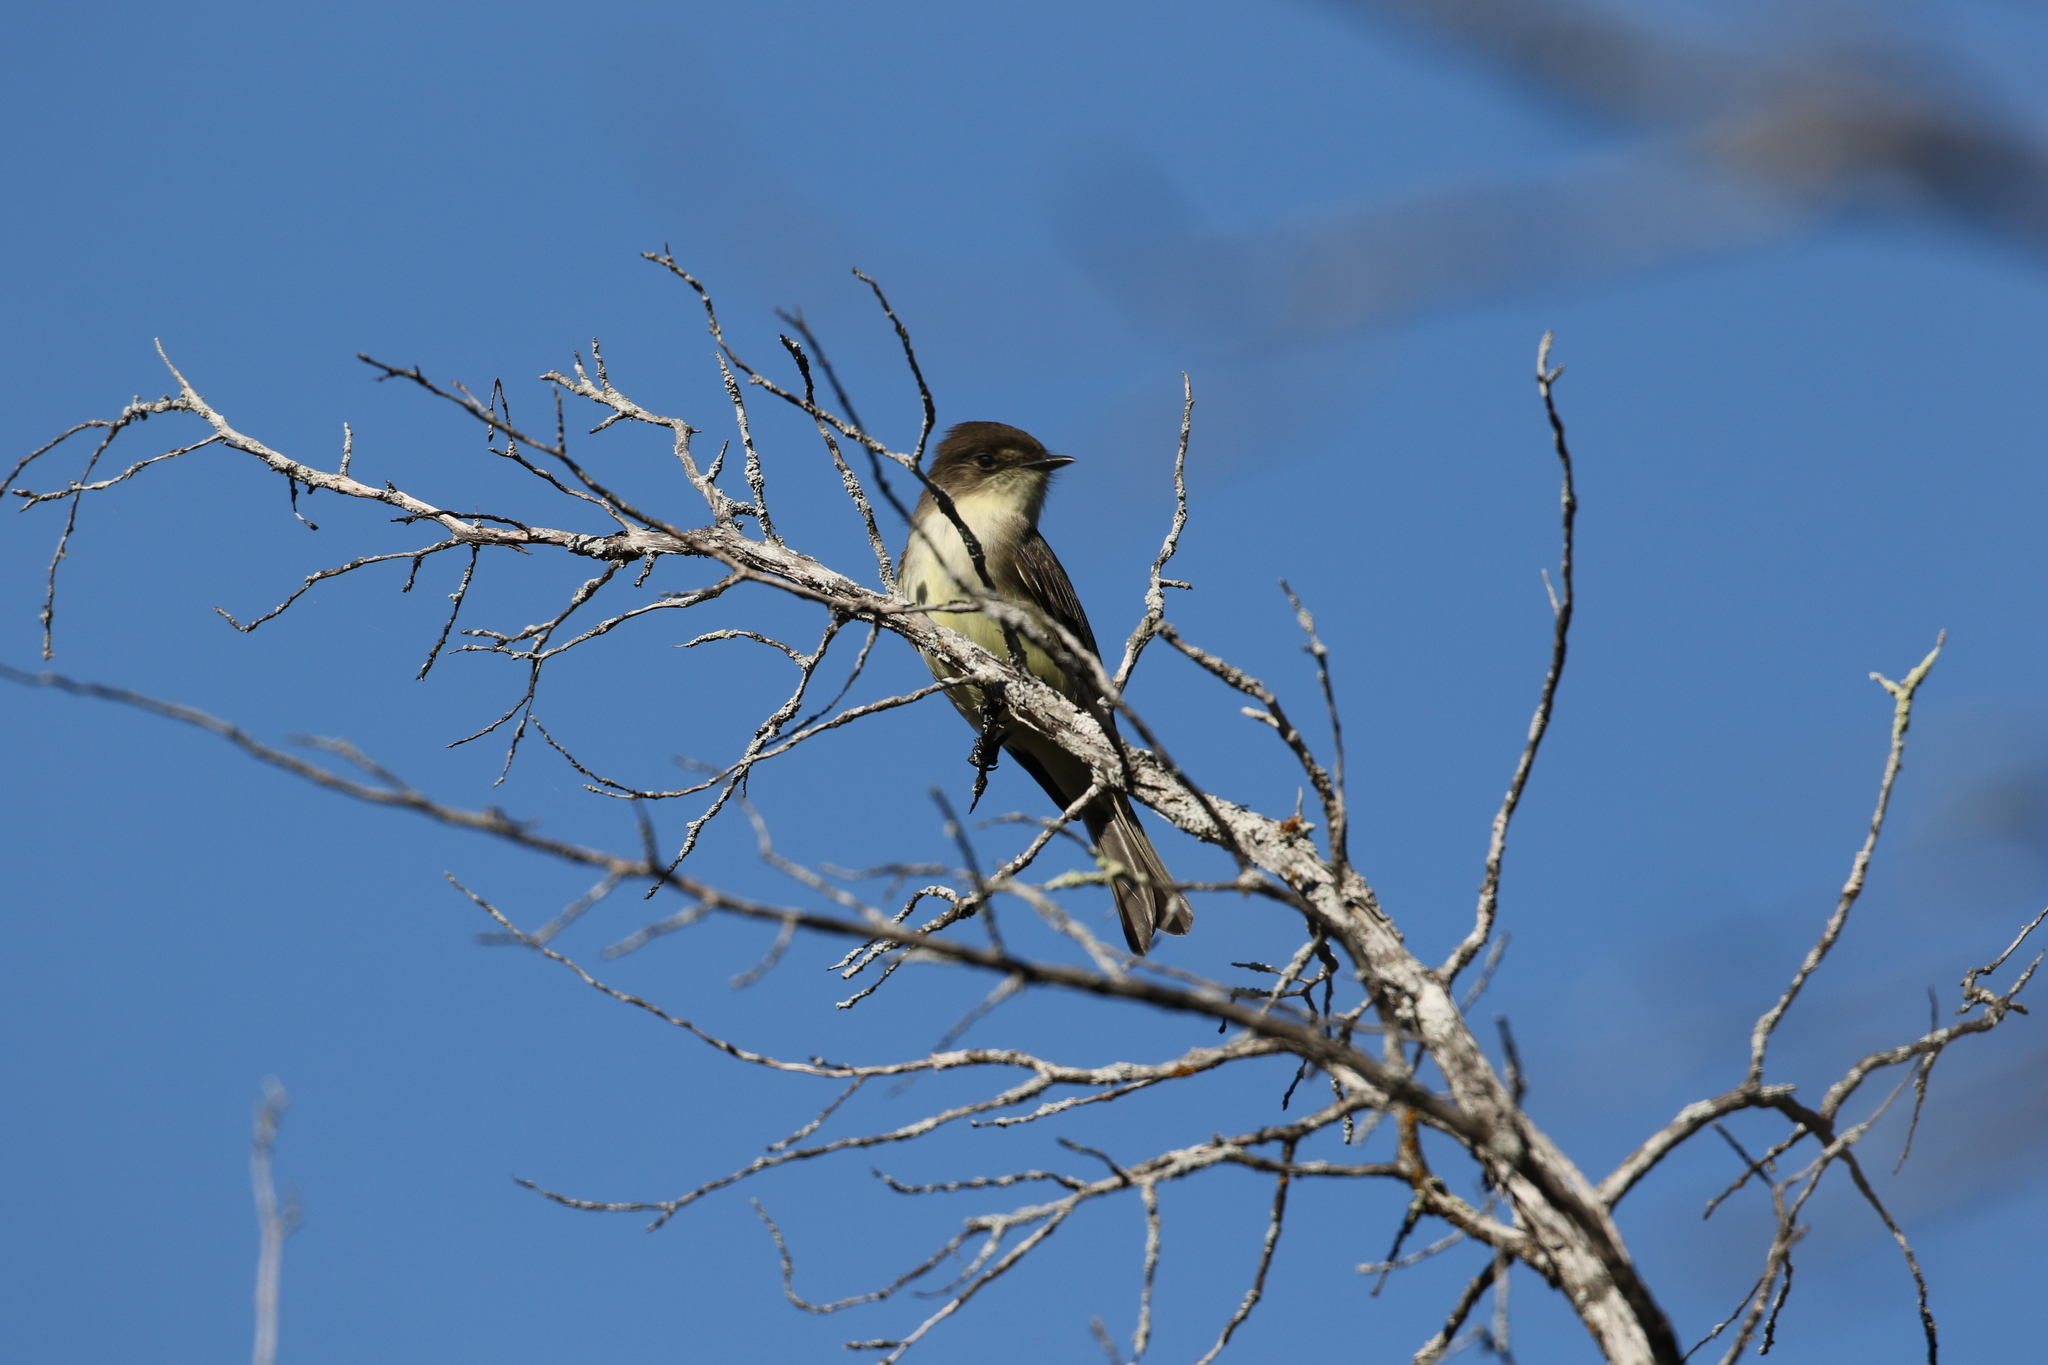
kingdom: Animalia
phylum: Chordata
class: Aves
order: Passeriformes
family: Tyrannidae
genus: Sayornis
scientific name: Sayornis phoebe
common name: Eastern phoebe
